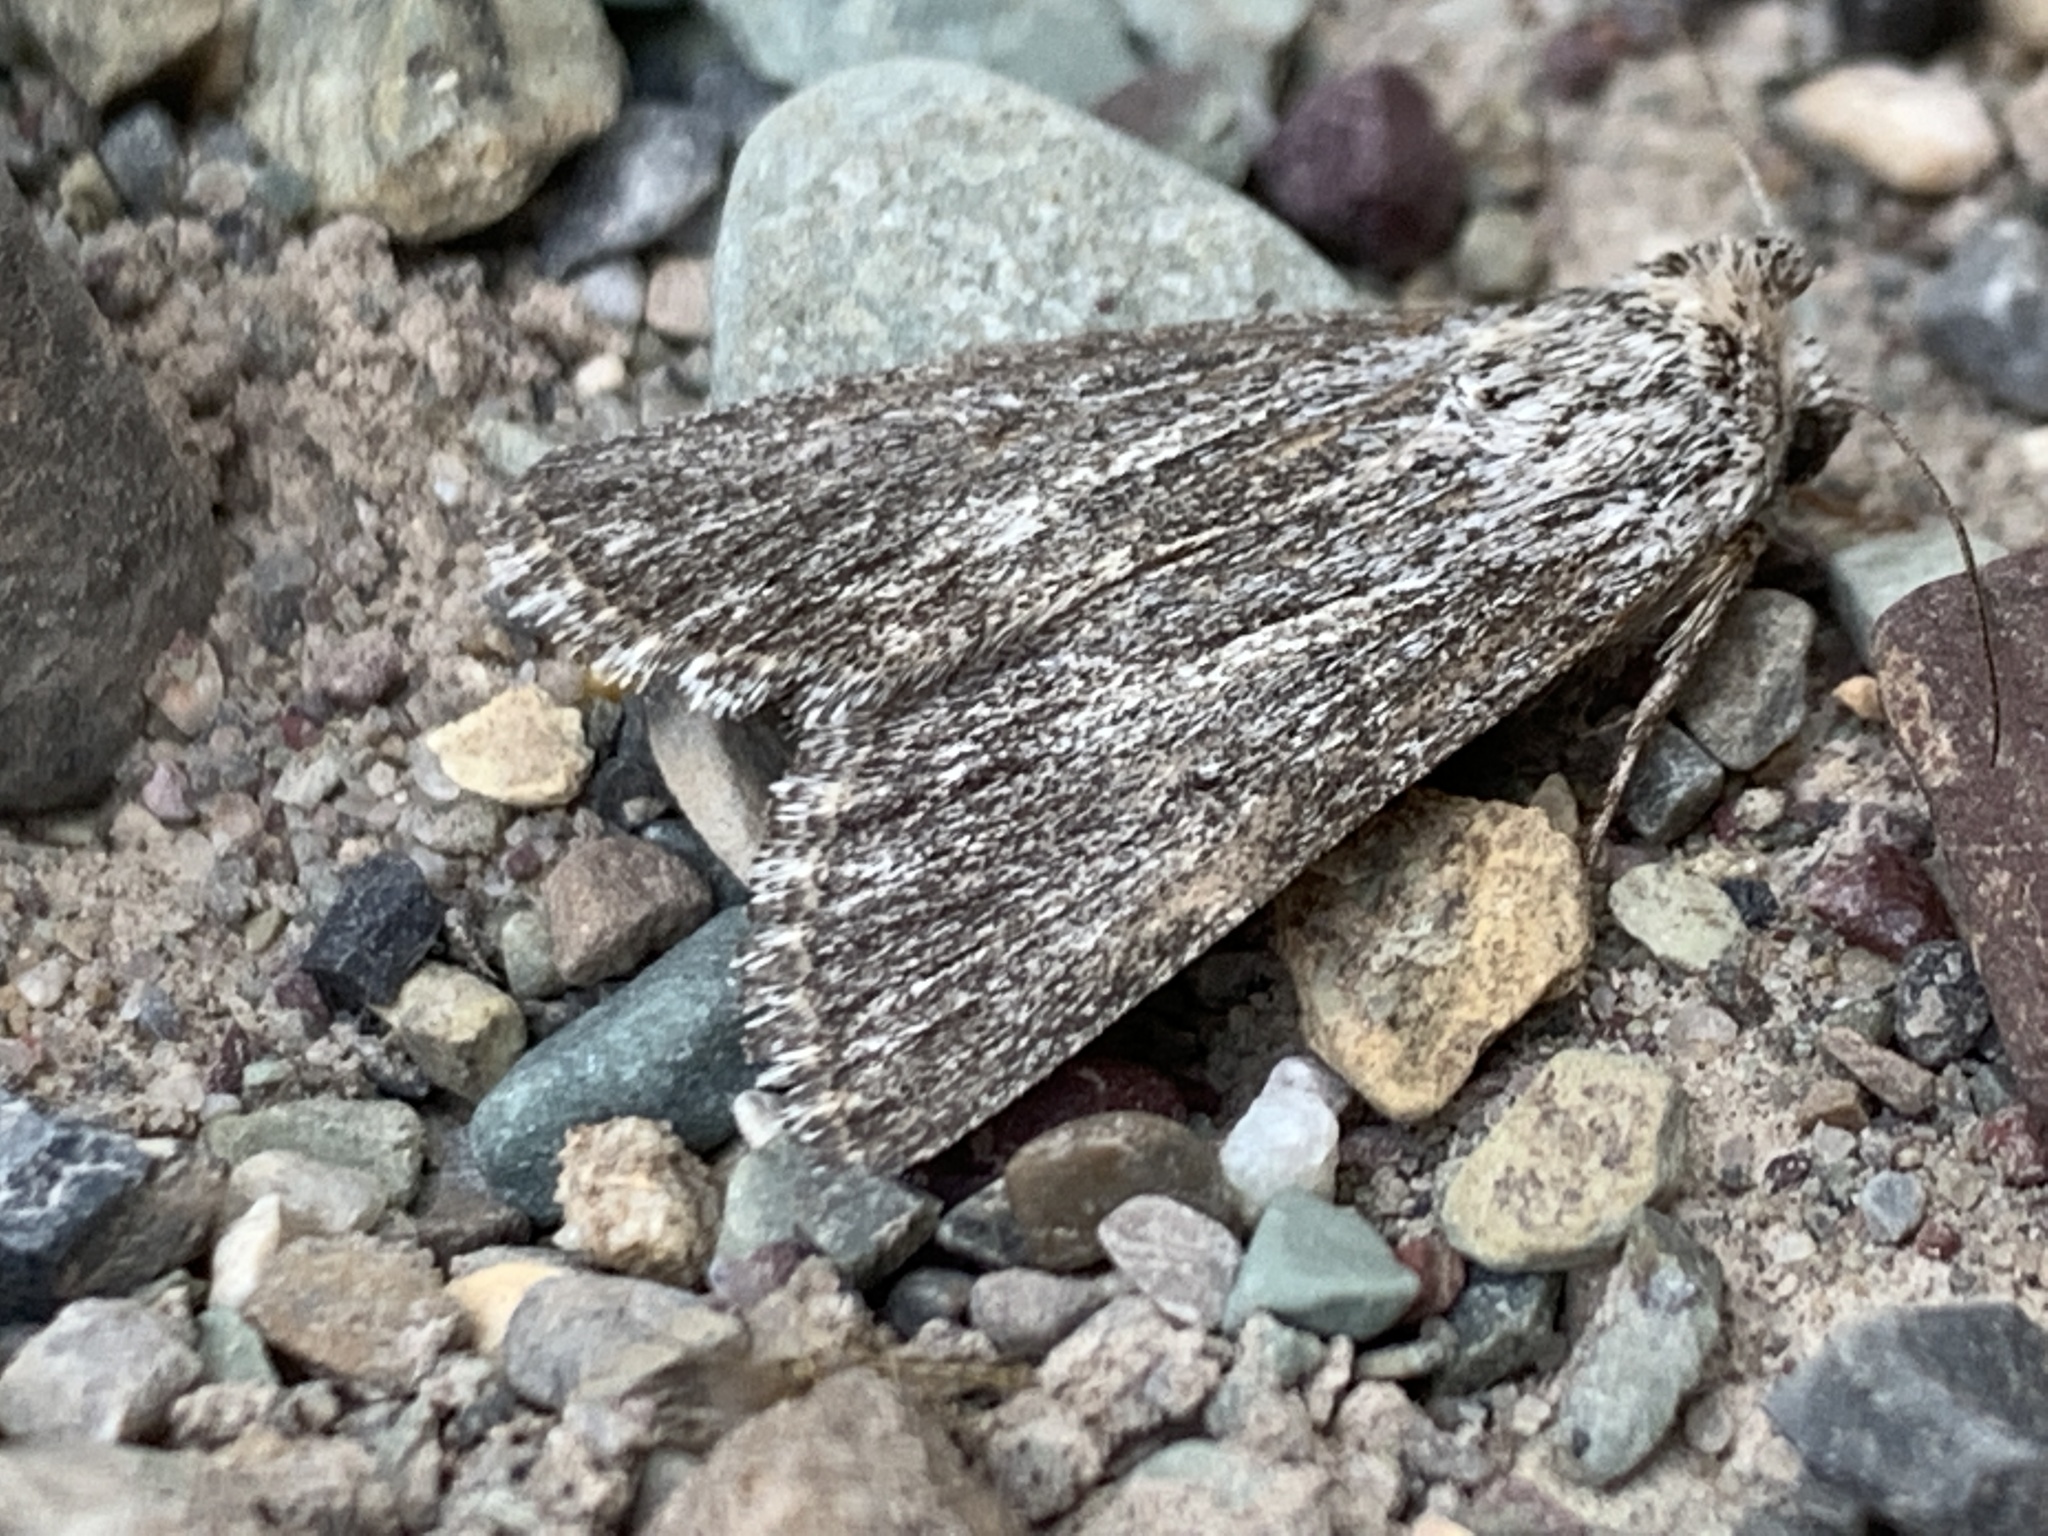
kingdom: Animalia
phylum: Arthropoda
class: Insecta
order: Lepidoptera
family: Noctuidae
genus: Sympistis
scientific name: Sympistis chons
